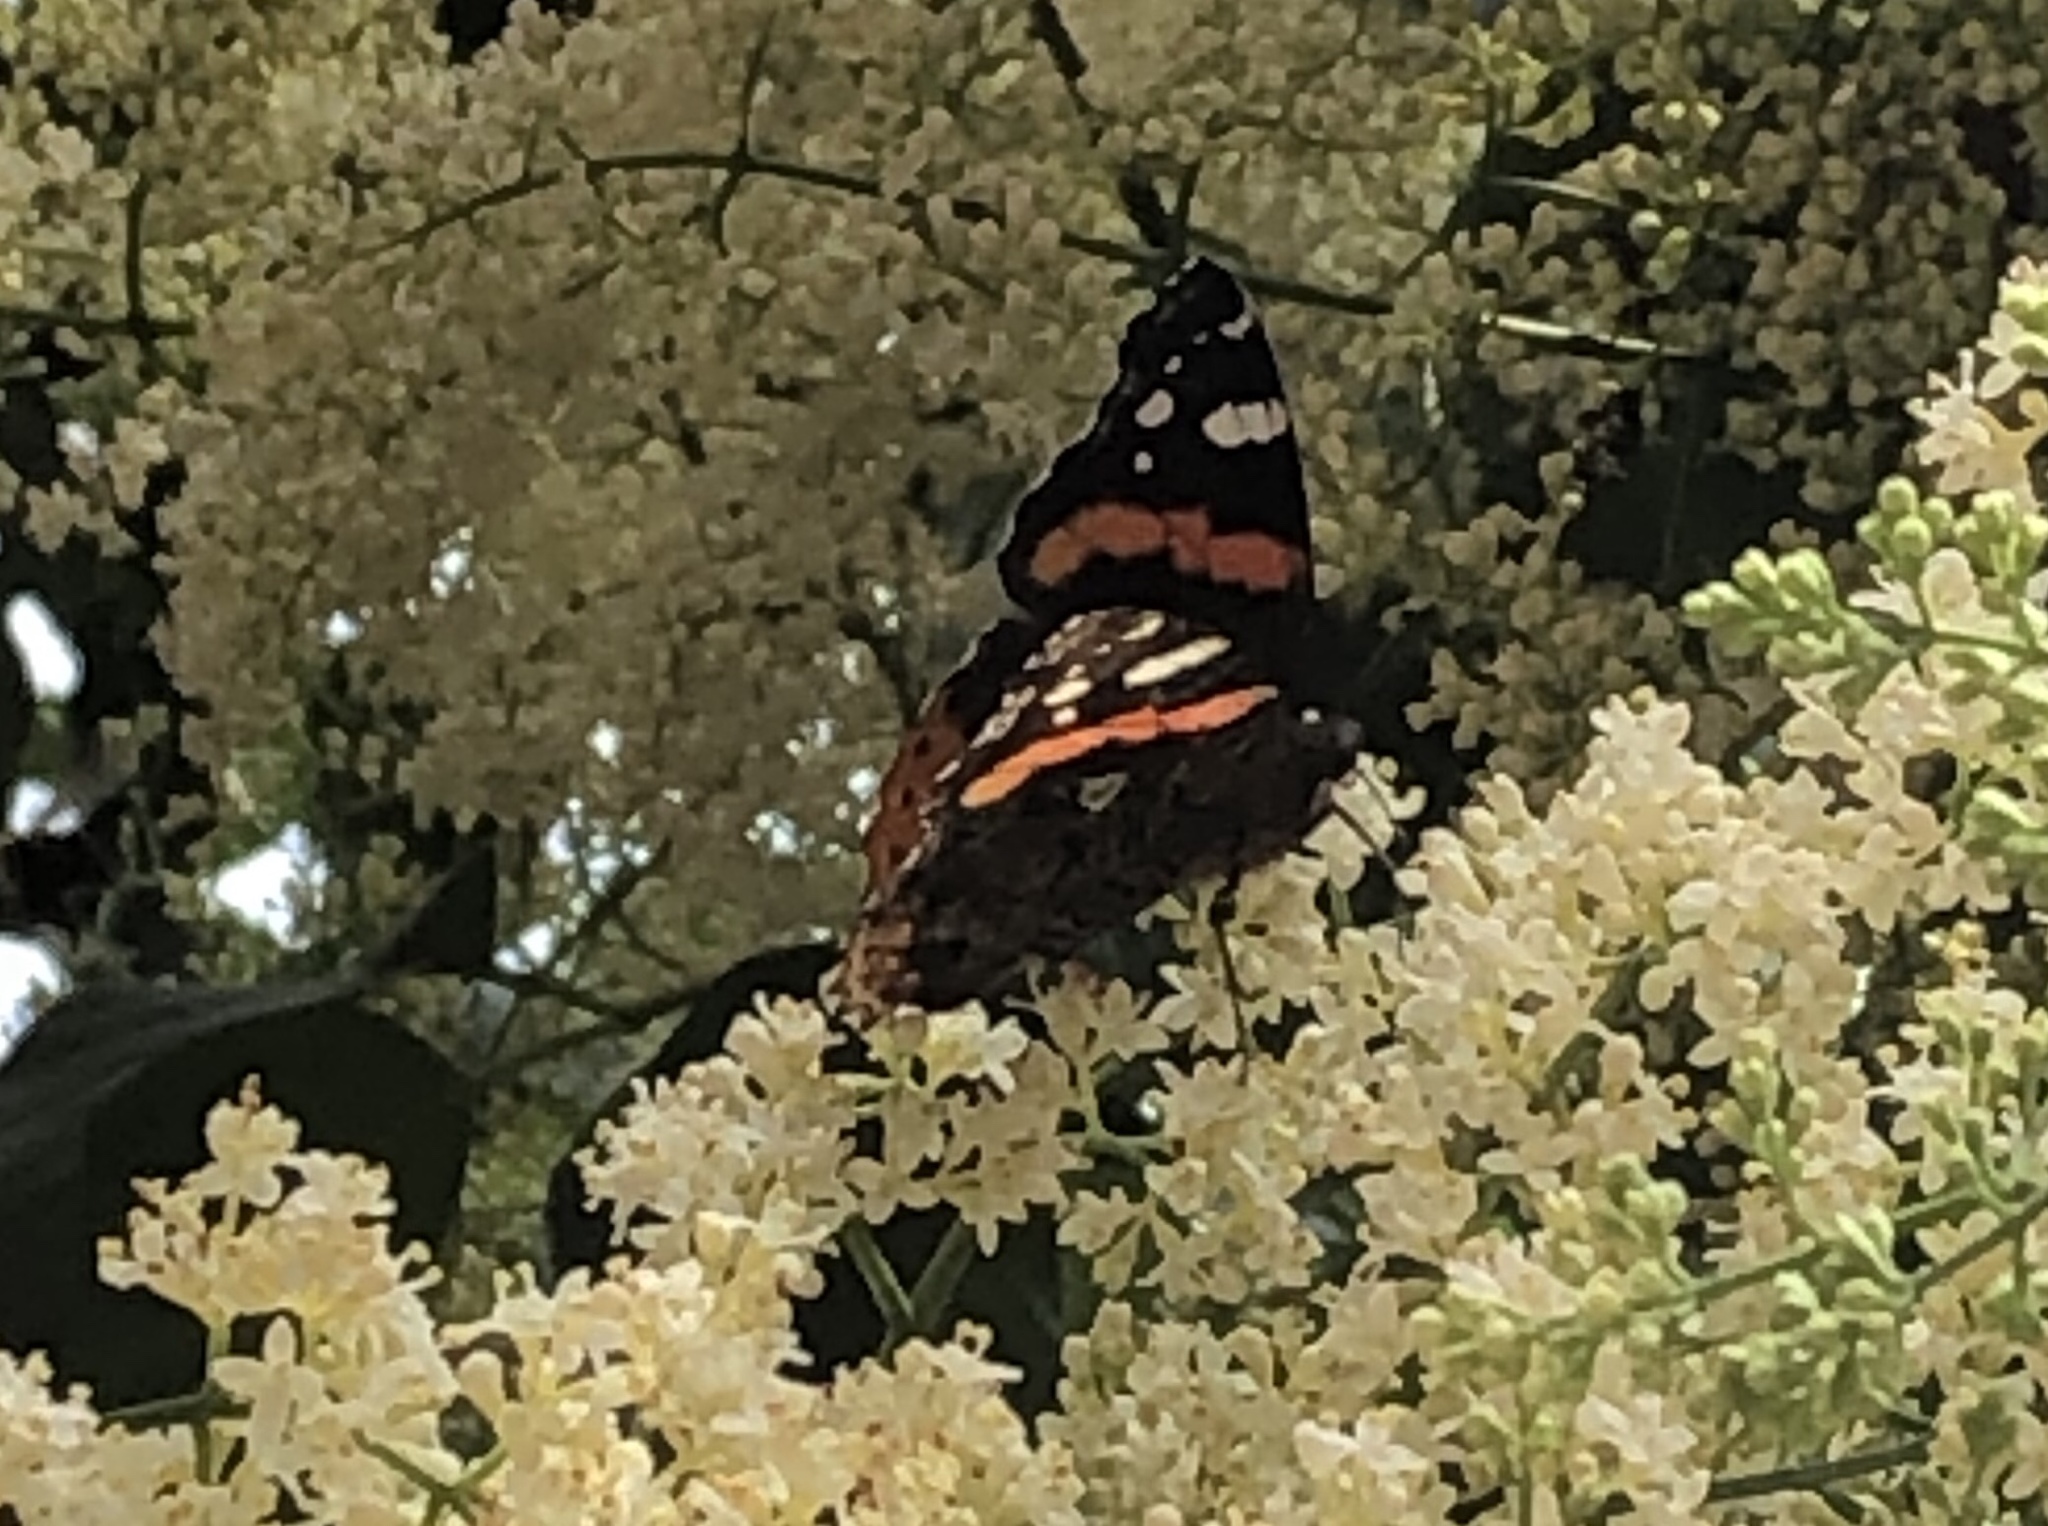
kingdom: Animalia
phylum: Arthropoda
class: Insecta
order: Lepidoptera
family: Nymphalidae
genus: Vanessa
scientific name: Vanessa atalanta
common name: Red admiral
